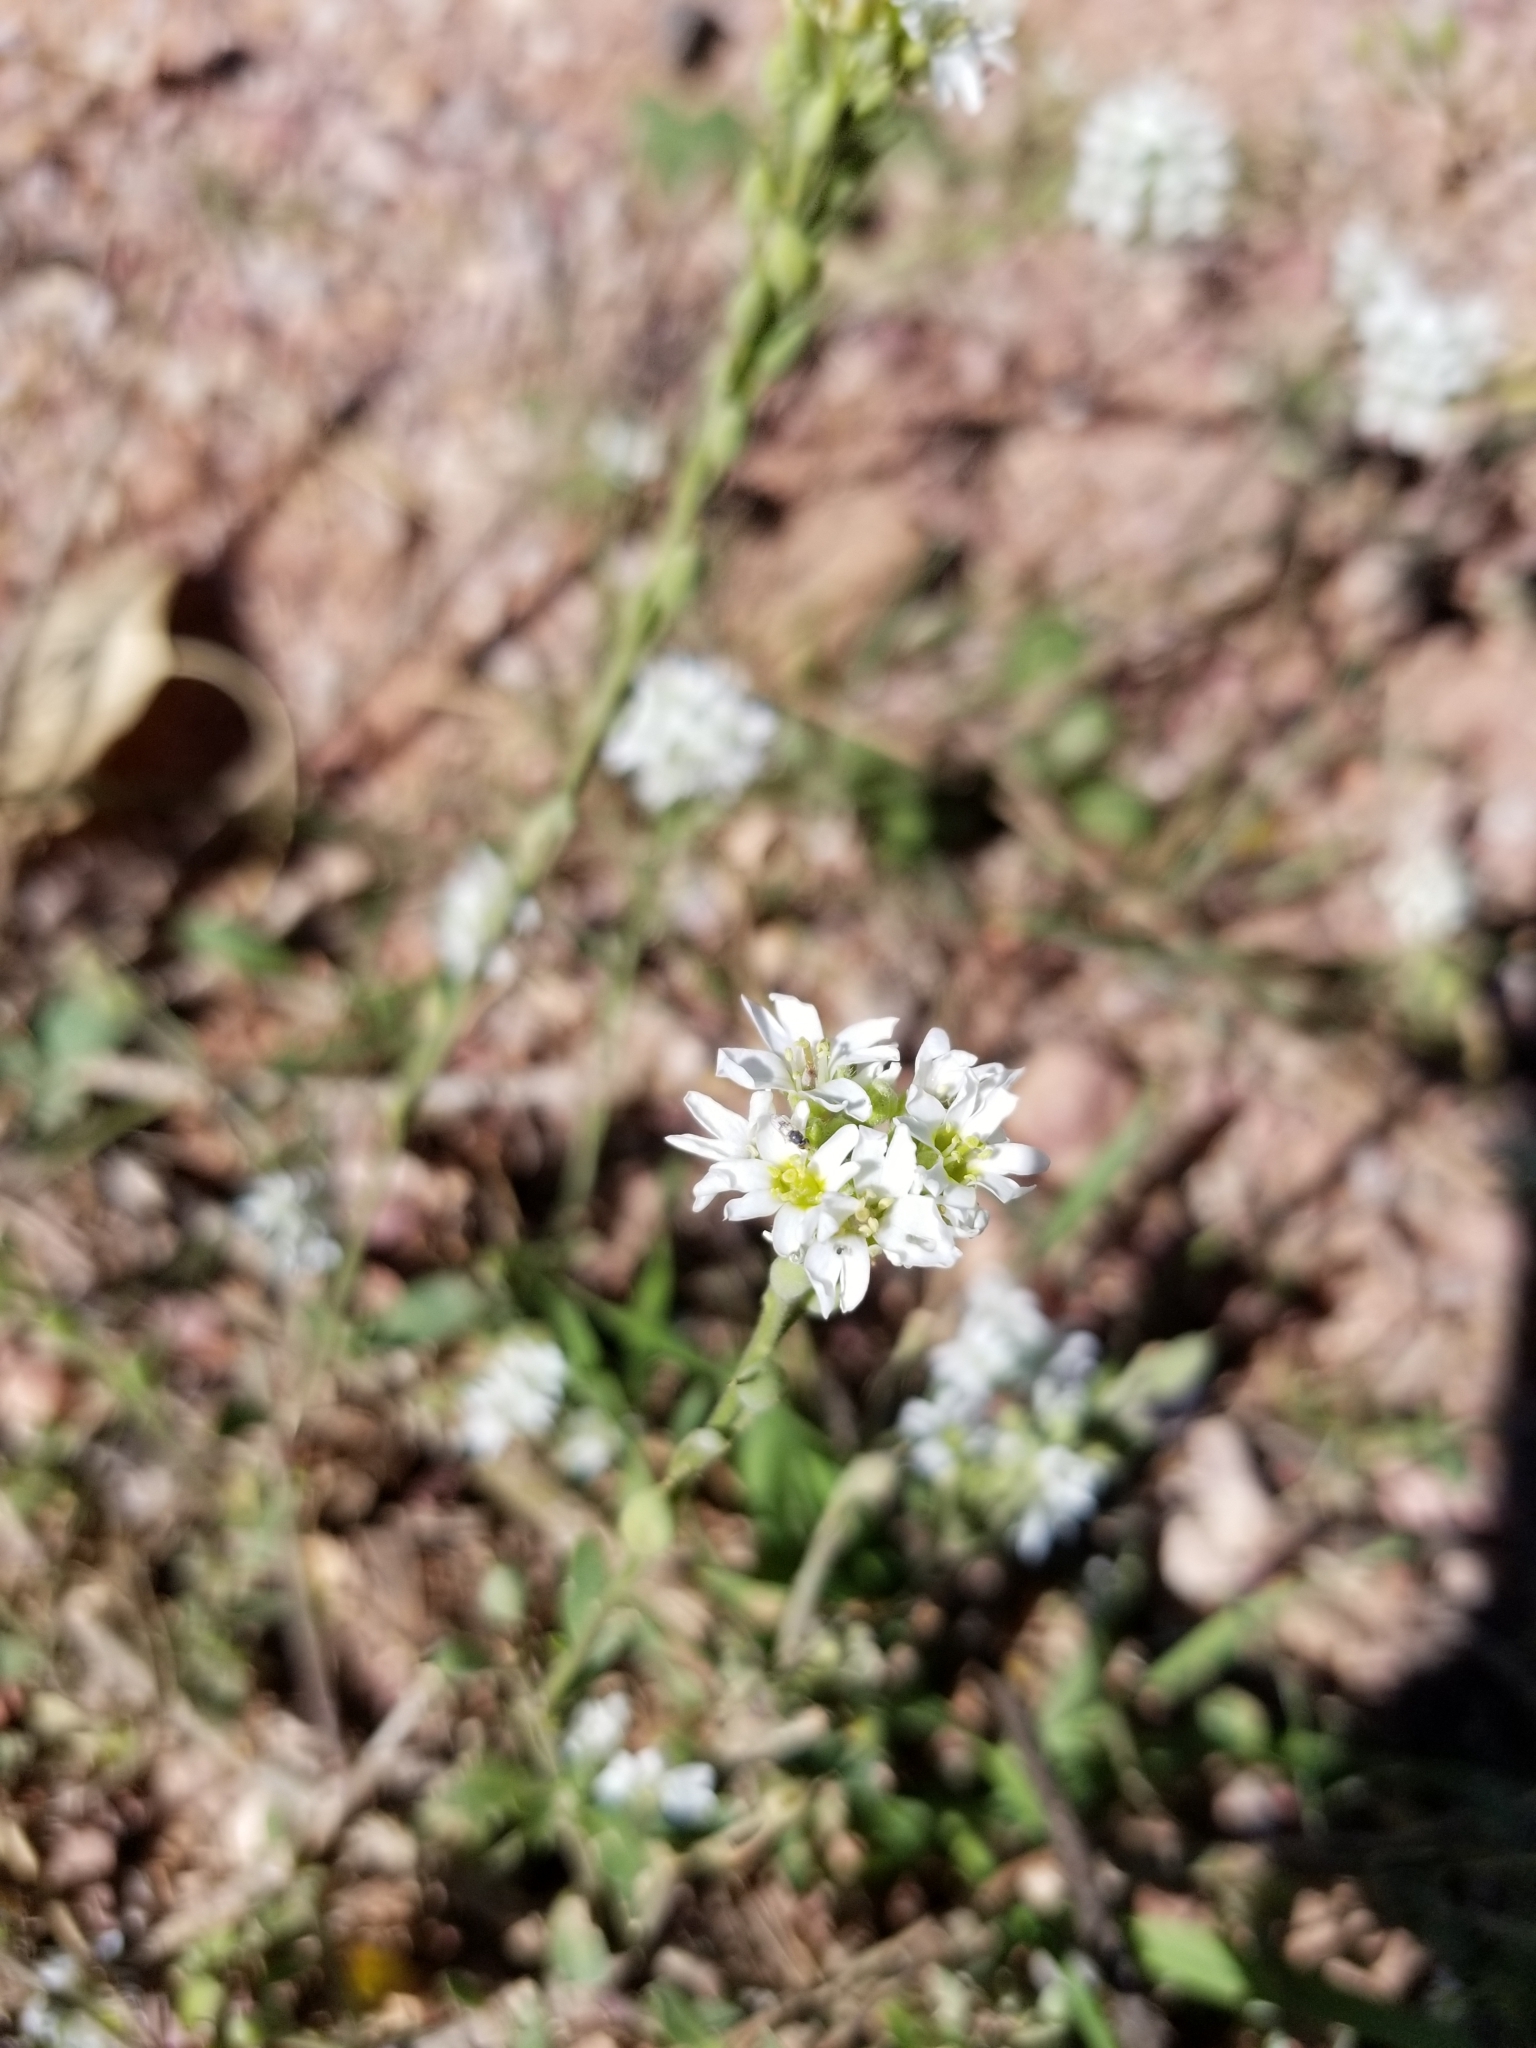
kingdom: Plantae
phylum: Tracheophyta
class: Magnoliopsida
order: Brassicales
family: Brassicaceae
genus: Berteroa
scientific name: Berteroa incana
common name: Hoary alison
